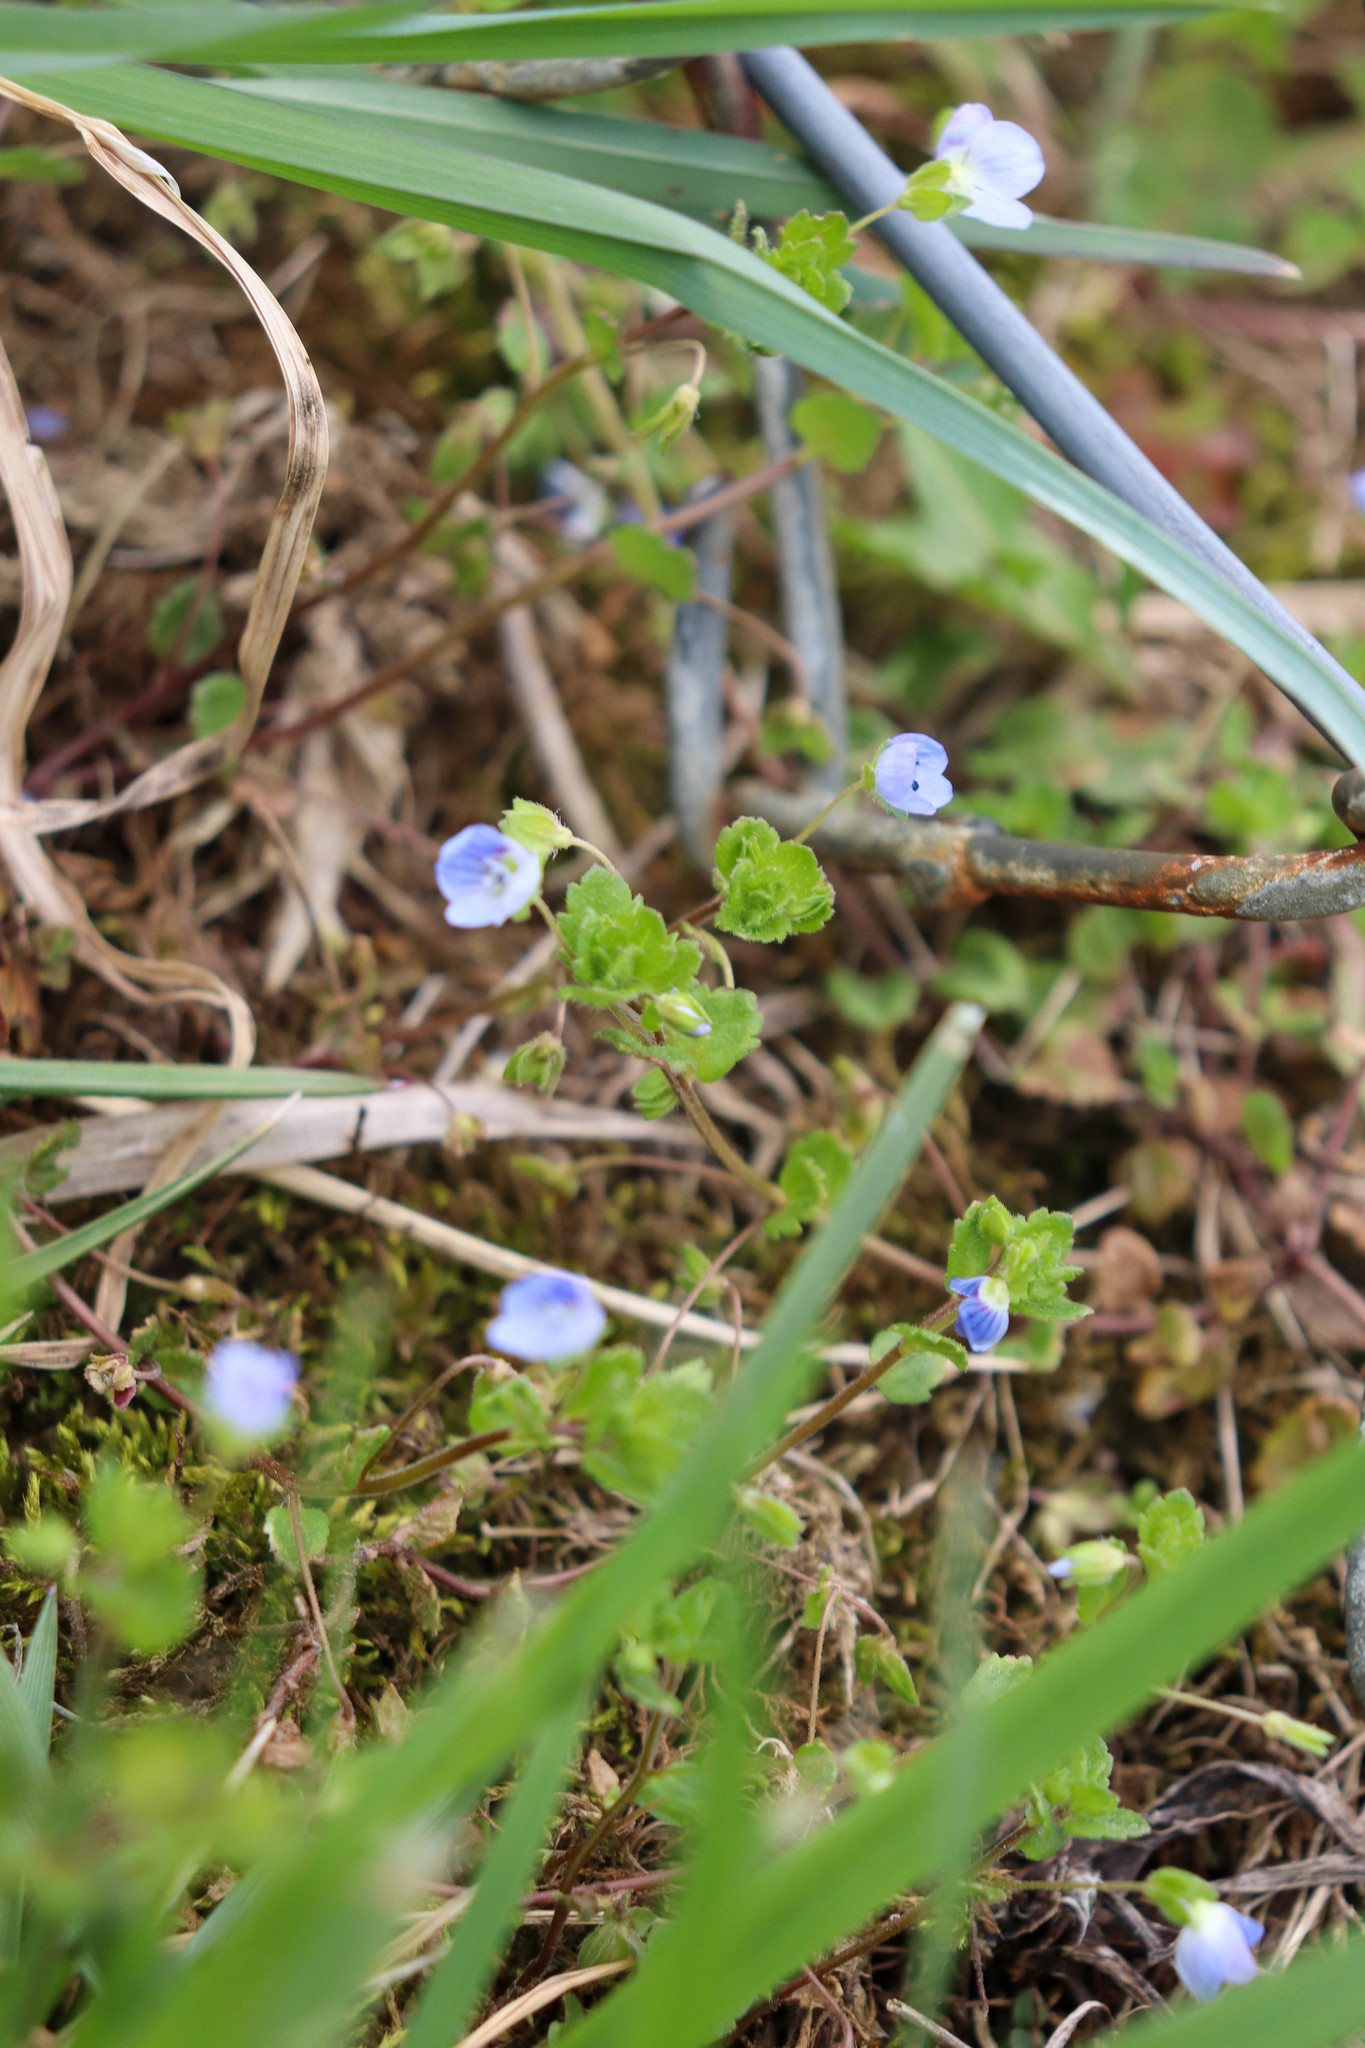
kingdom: Plantae
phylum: Tracheophyta
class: Magnoliopsida
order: Lamiales
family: Plantaginaceae
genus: Veronica
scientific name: Veronica persica
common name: Common field-speedwell
